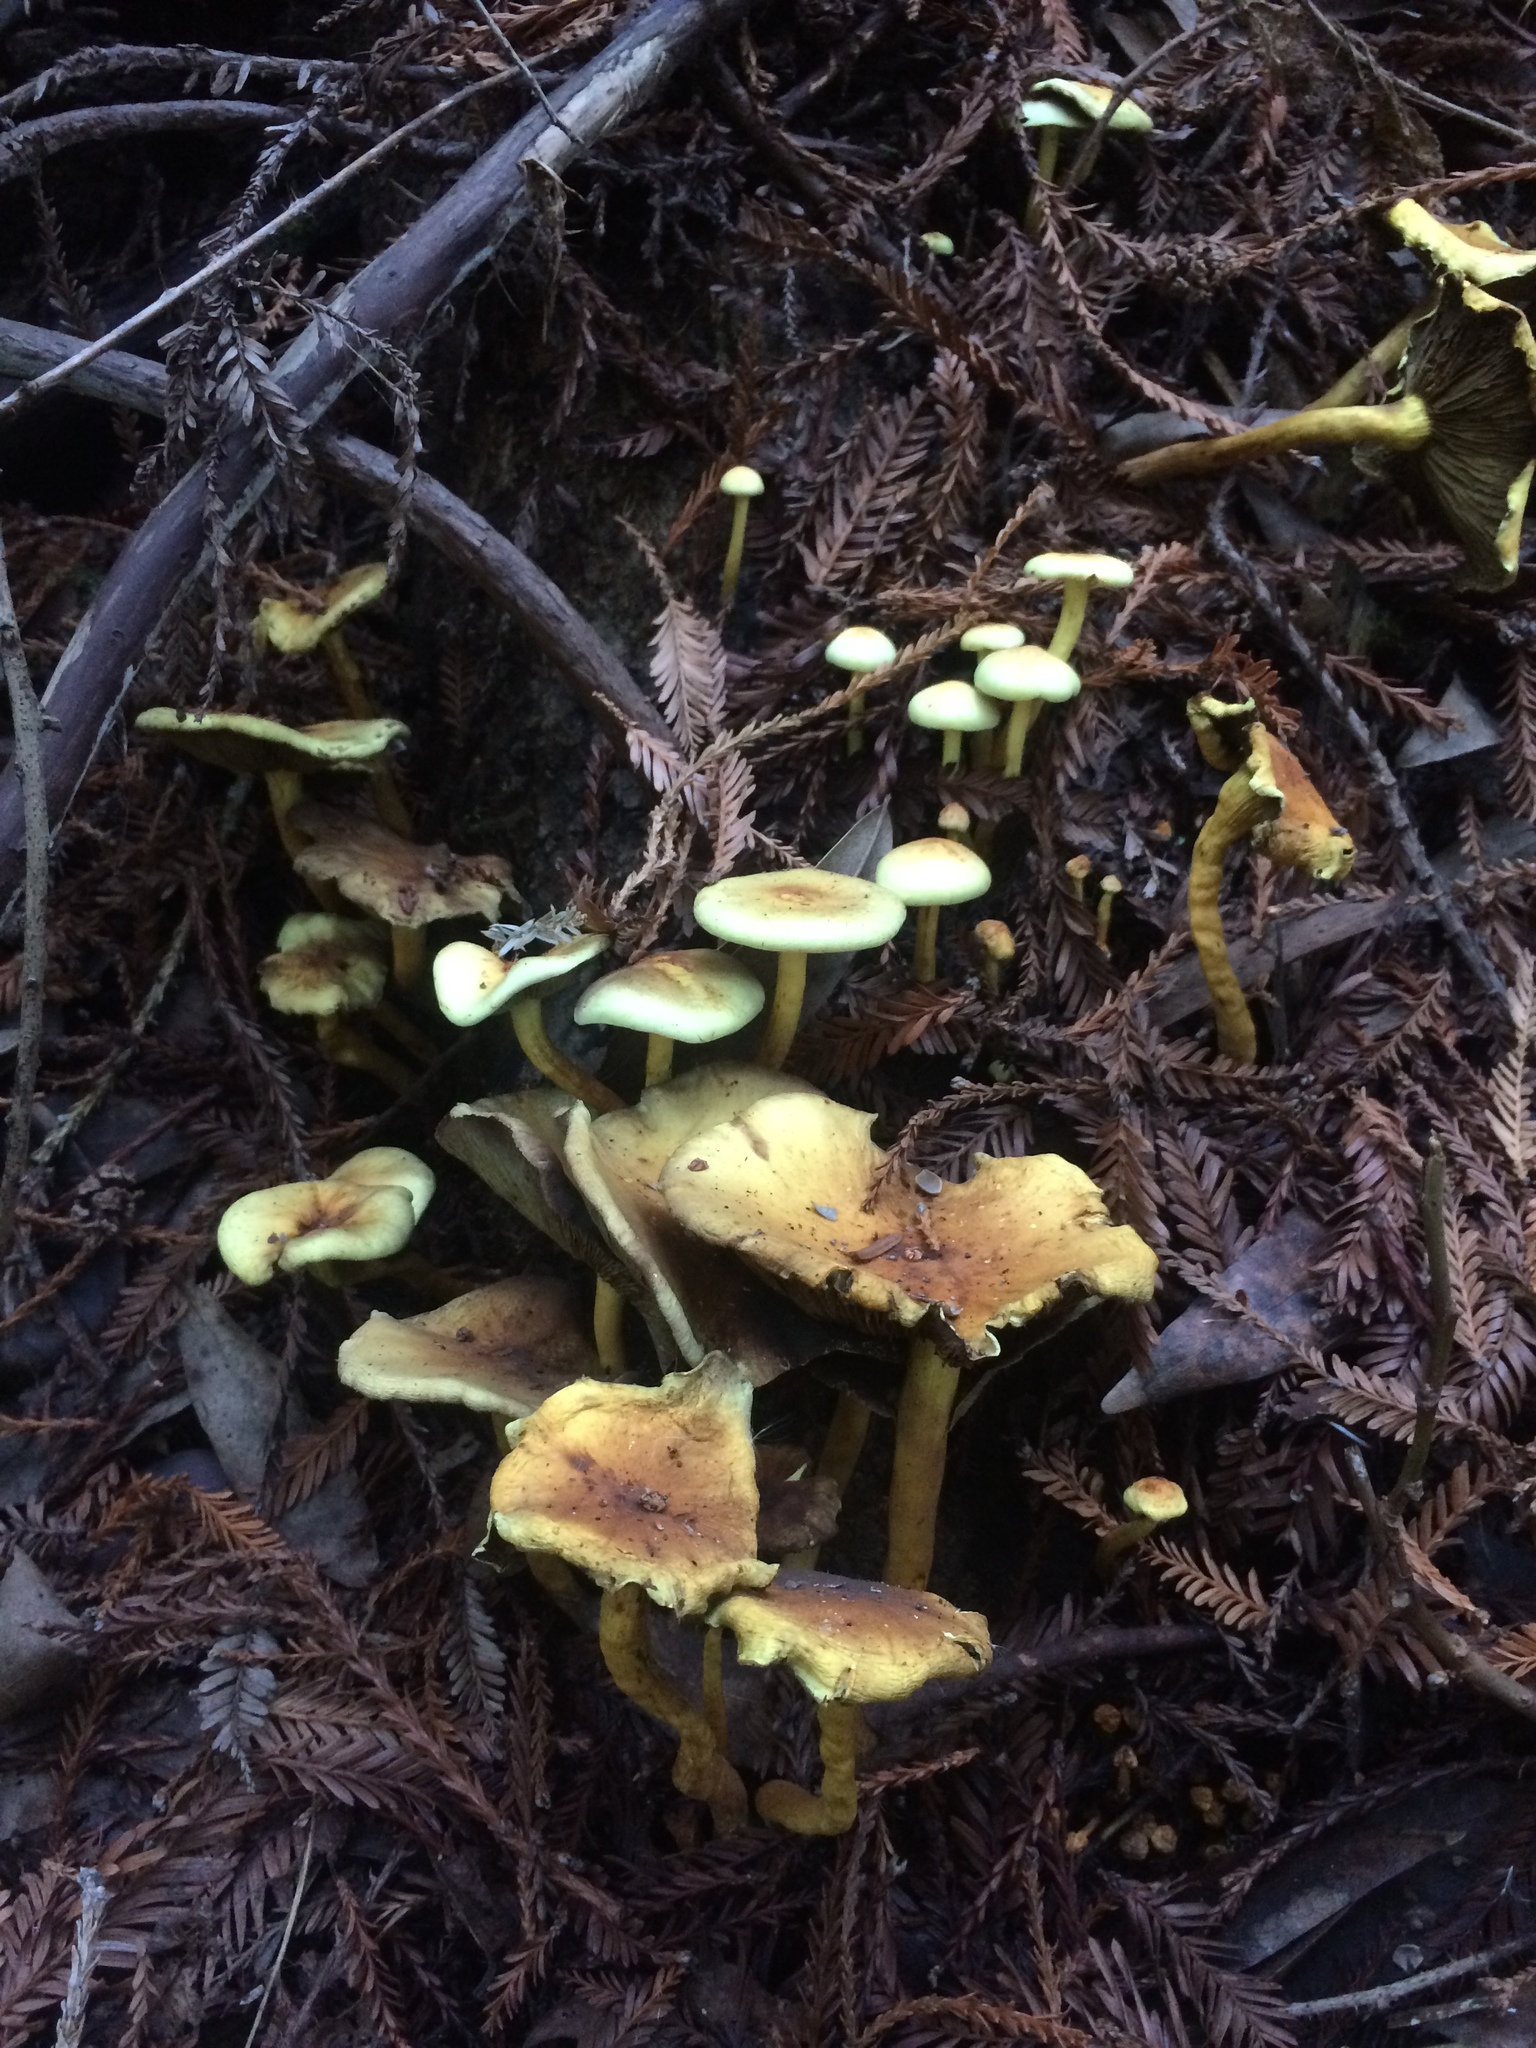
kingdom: Fungi
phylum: Basidiomycota
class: Agaricomycetes
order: Agaricales
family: Strophariaceae
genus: Hypholoma
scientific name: Hypholoma fasciculare
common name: Sulphur tuft
